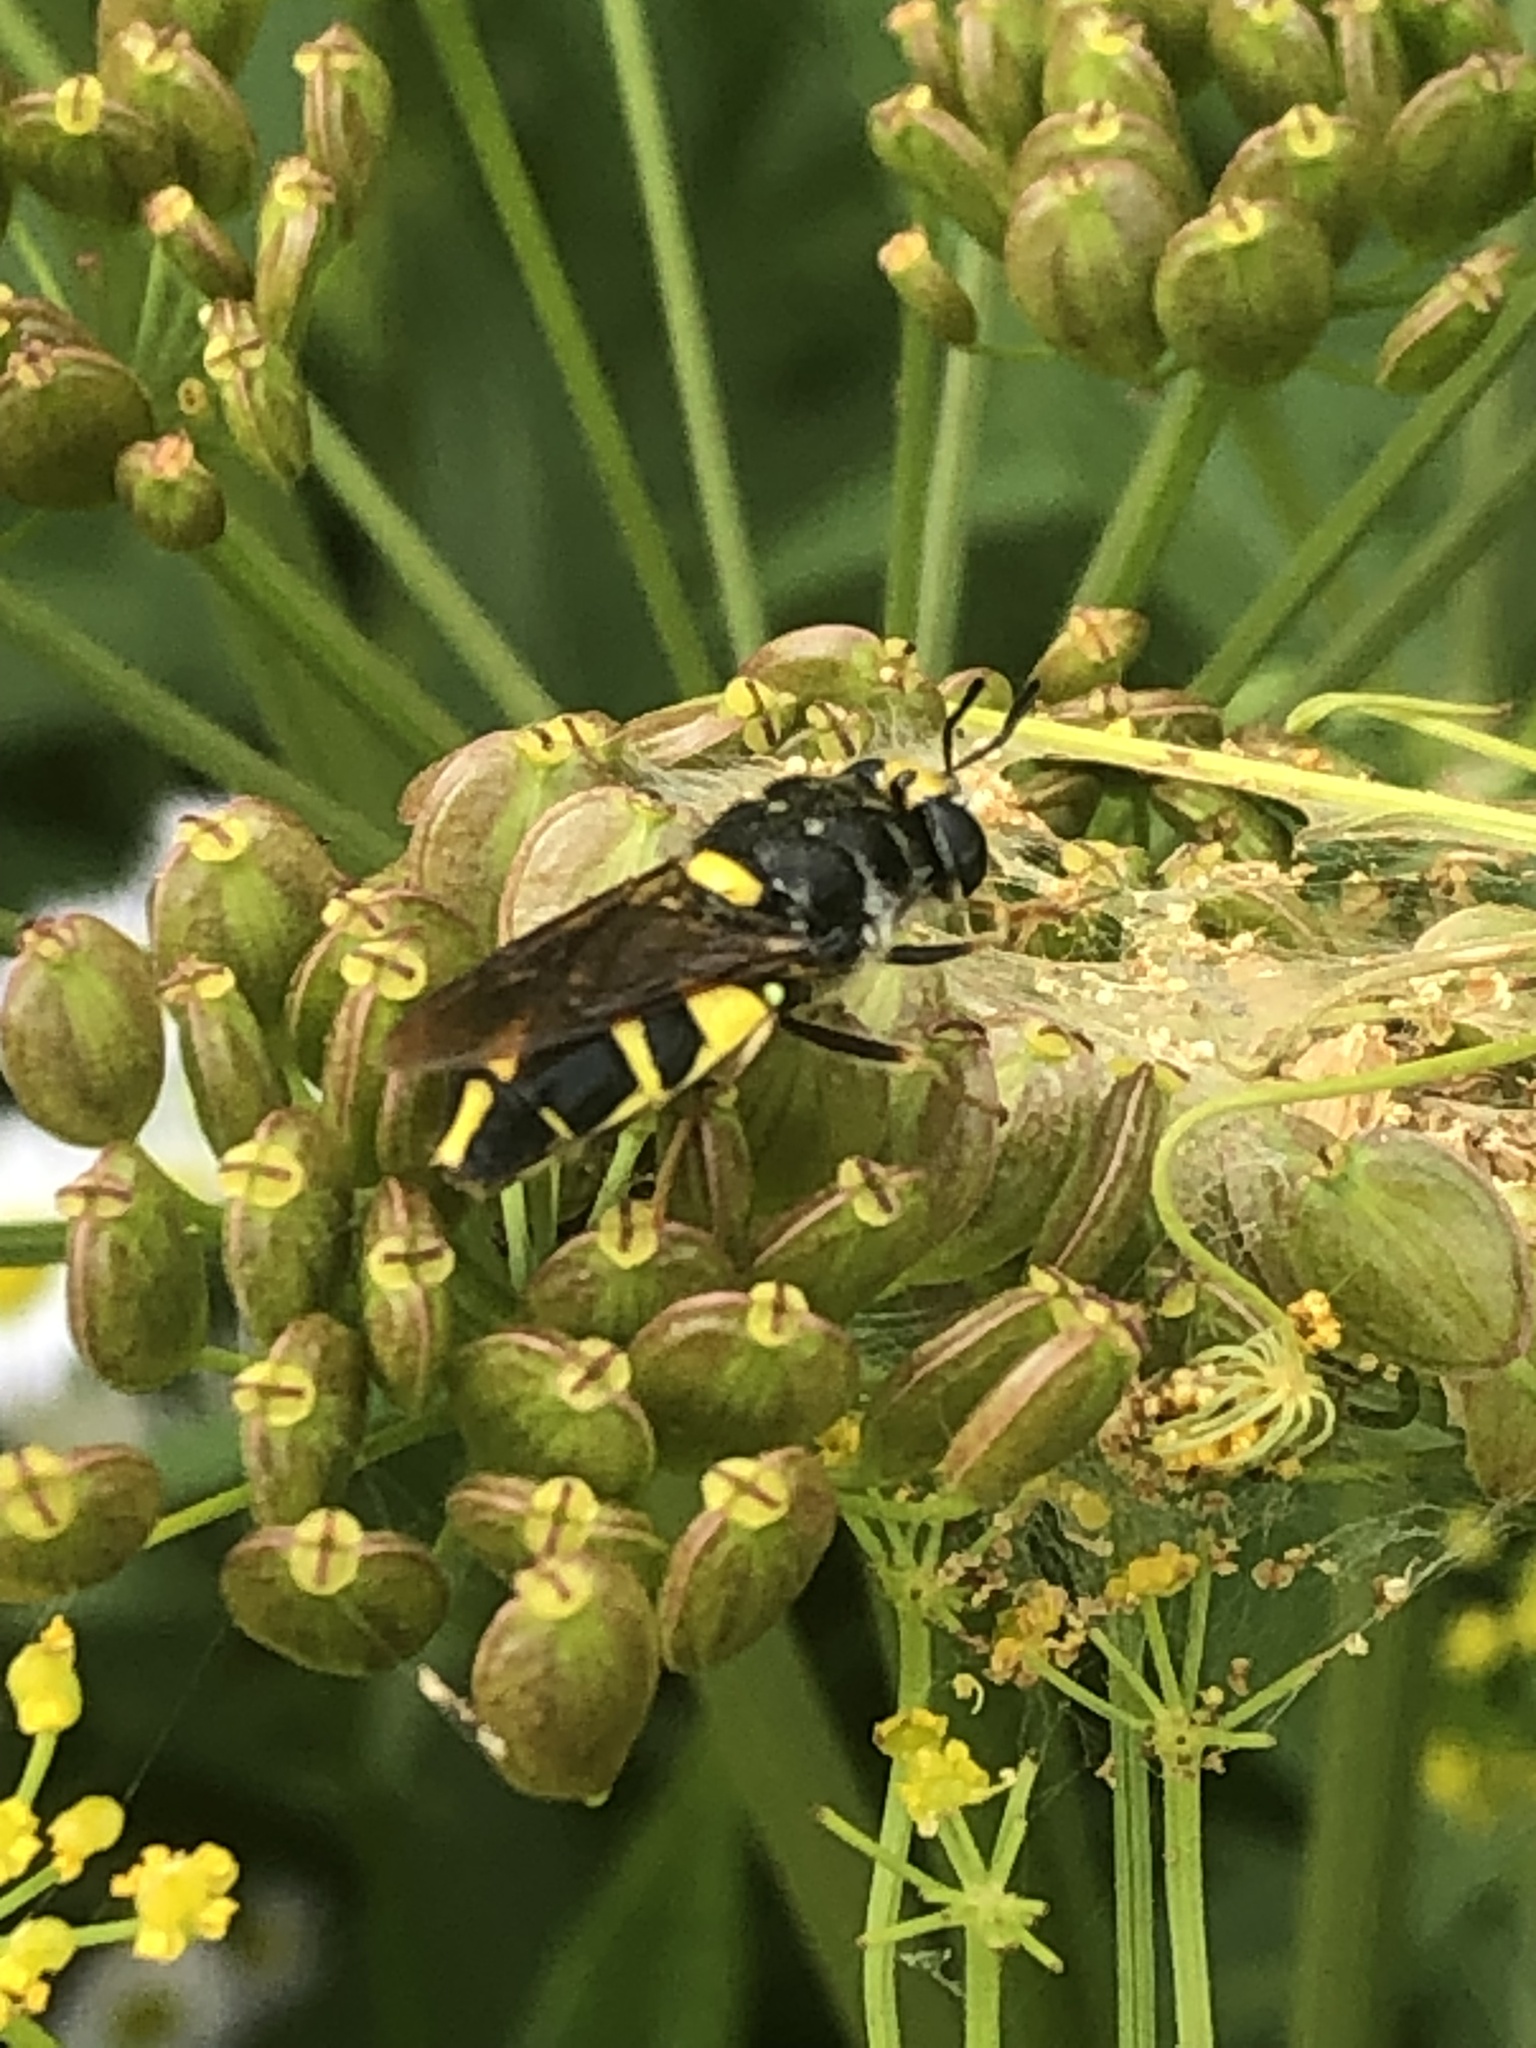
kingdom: Animalia
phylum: Arthropoda
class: Insecta
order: Diptera
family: Stratiomyidae
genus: Stratiomys
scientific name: Stratiomys norma
